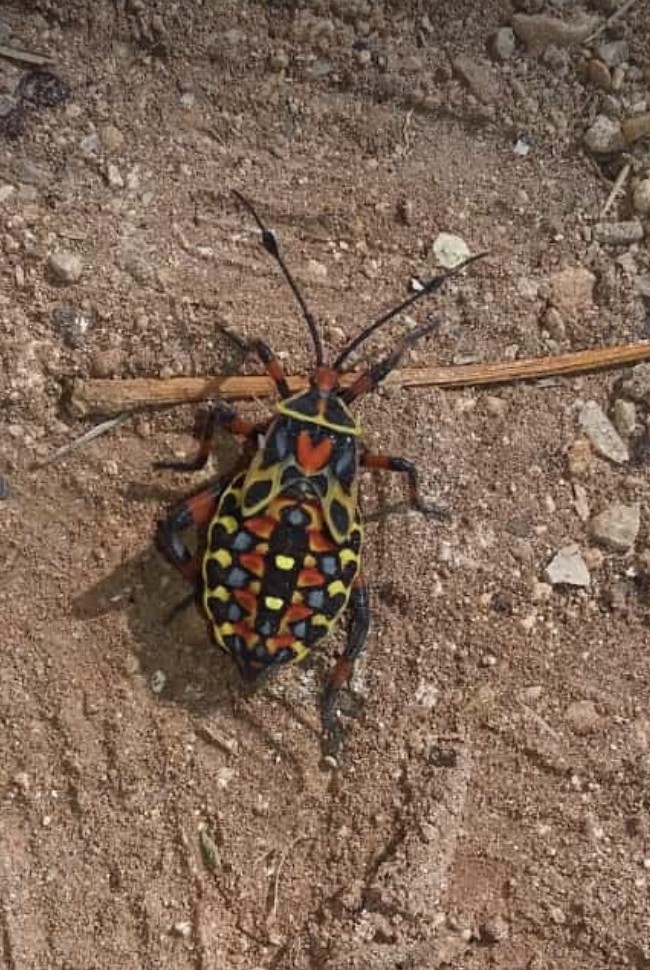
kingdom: Animalia
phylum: Arthropoda
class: Insecta
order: Hemiptera
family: Coreidae
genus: Pachylis
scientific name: Pachylis nervosus
